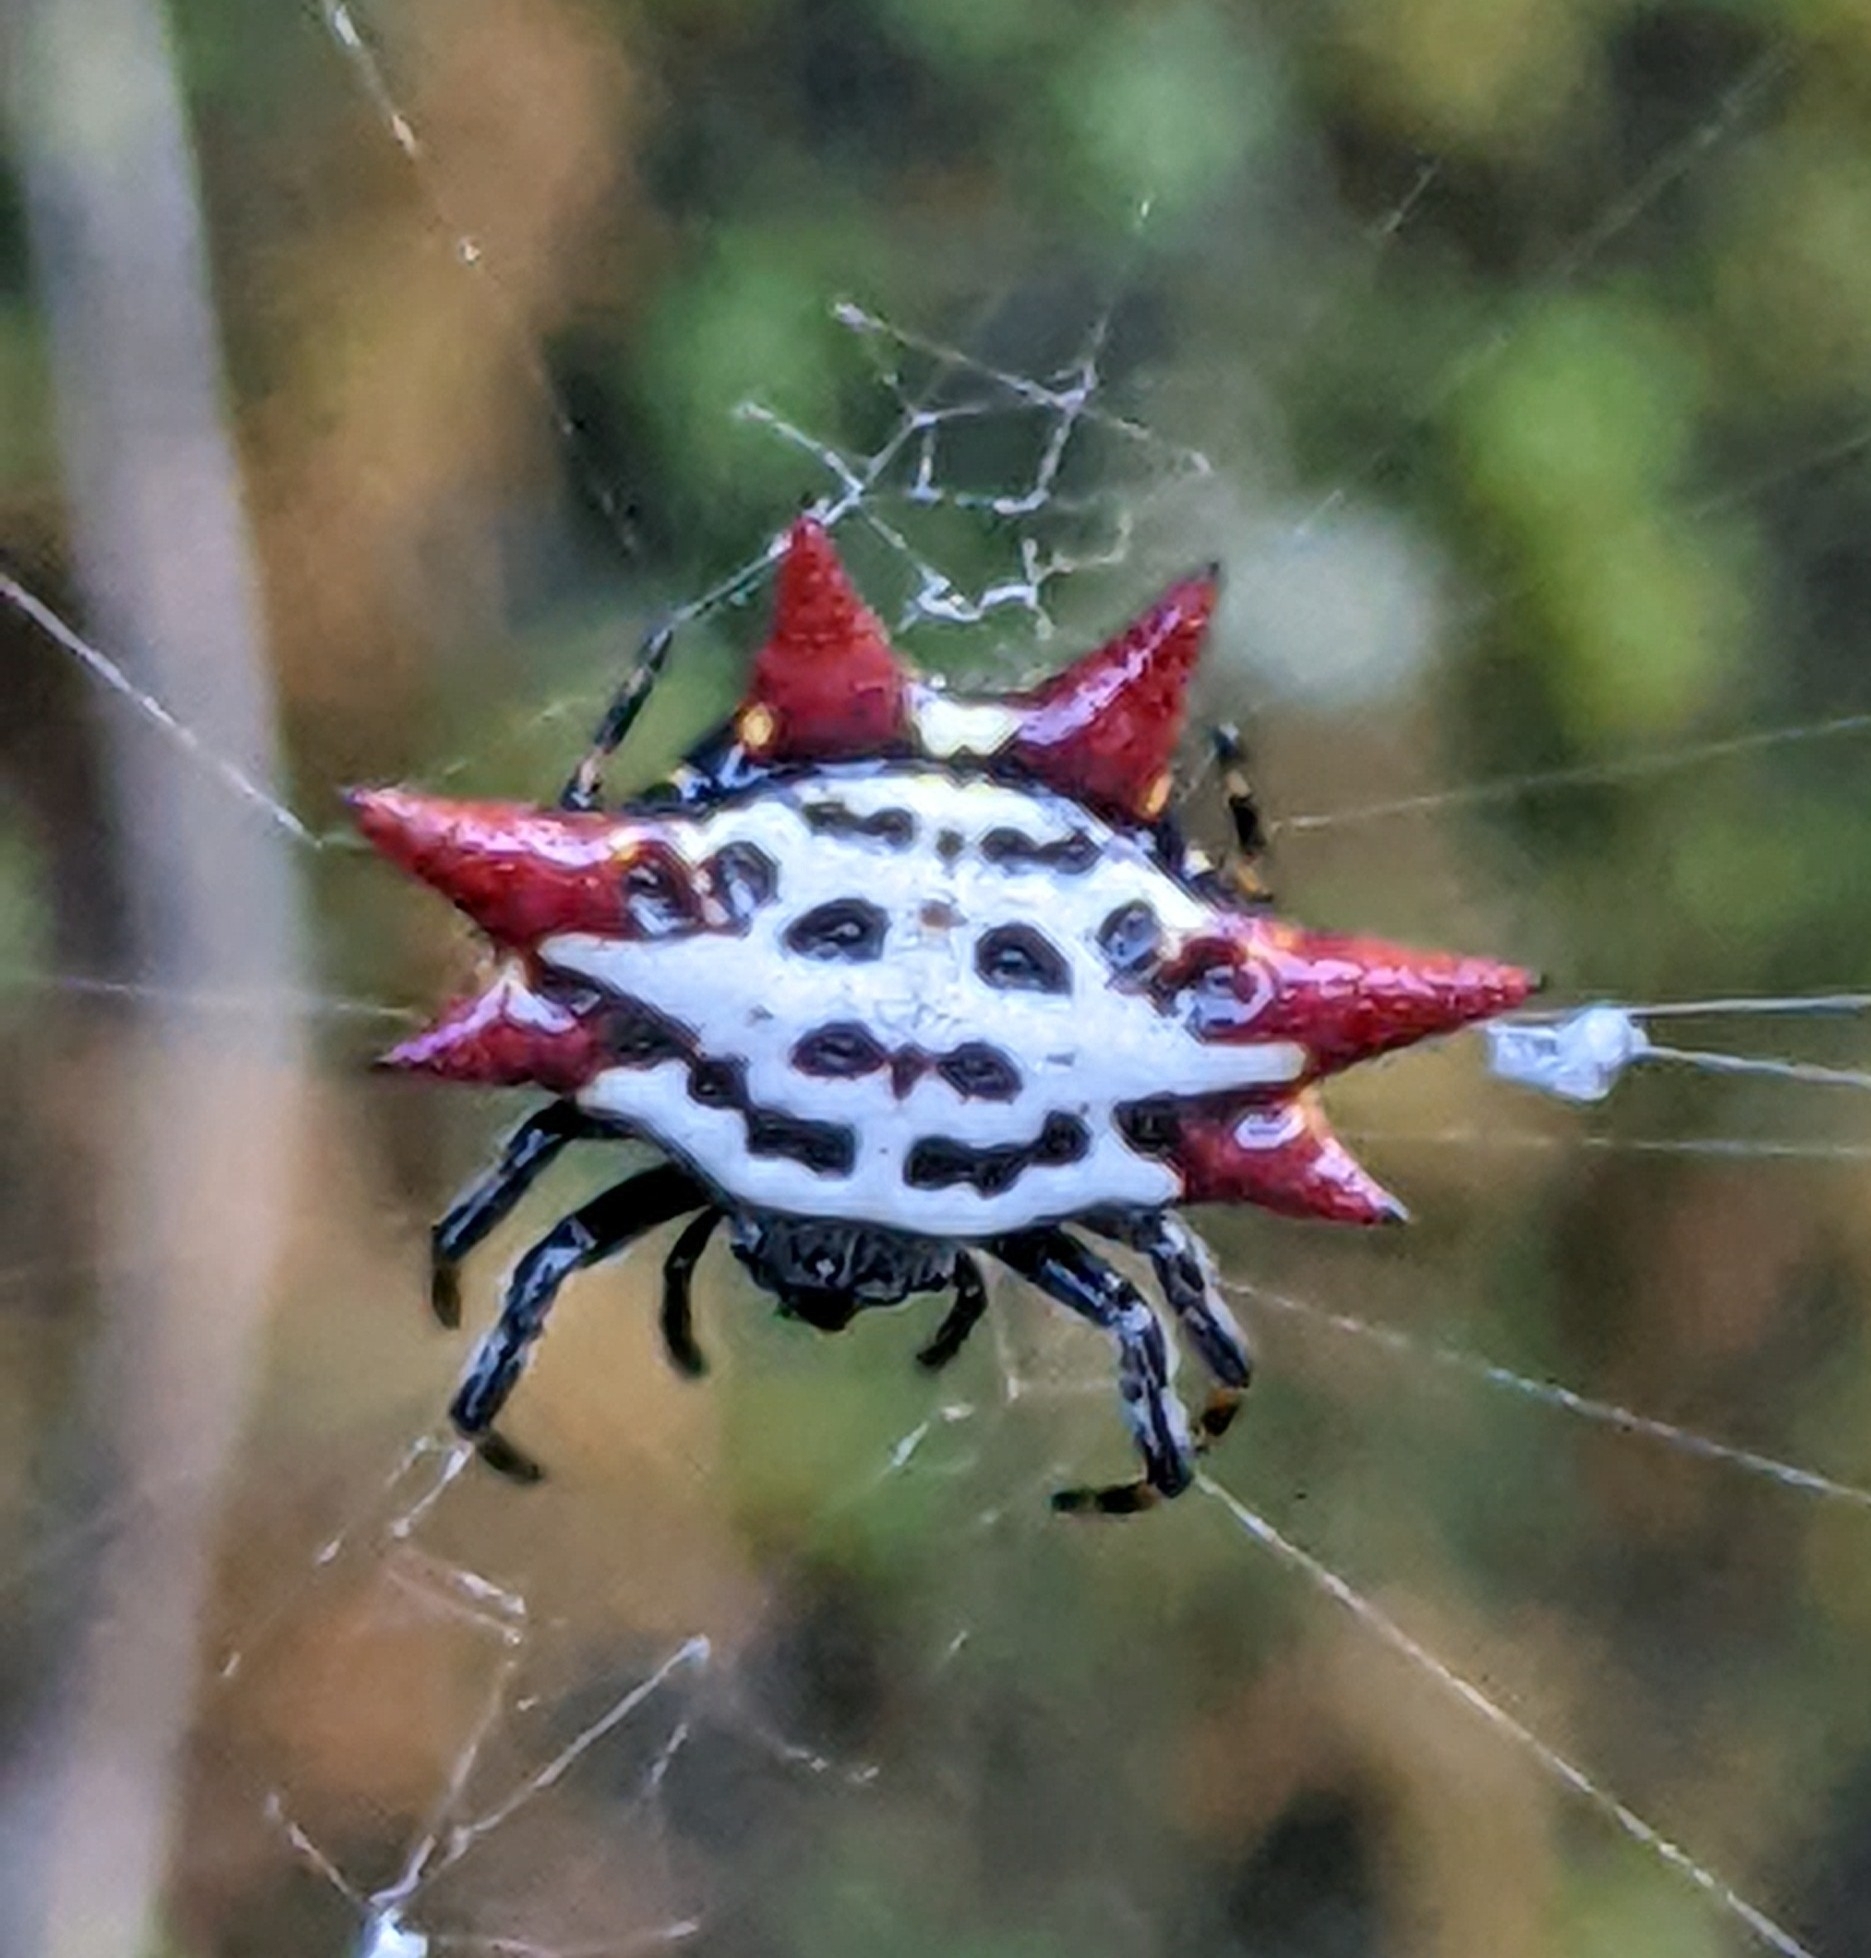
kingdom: Animalia
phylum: Arthropoda
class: Arachnida
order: Araneae
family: Araneidae
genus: Gasteracantha
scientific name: Gasteracantha cancriformis
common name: Orb weavers
